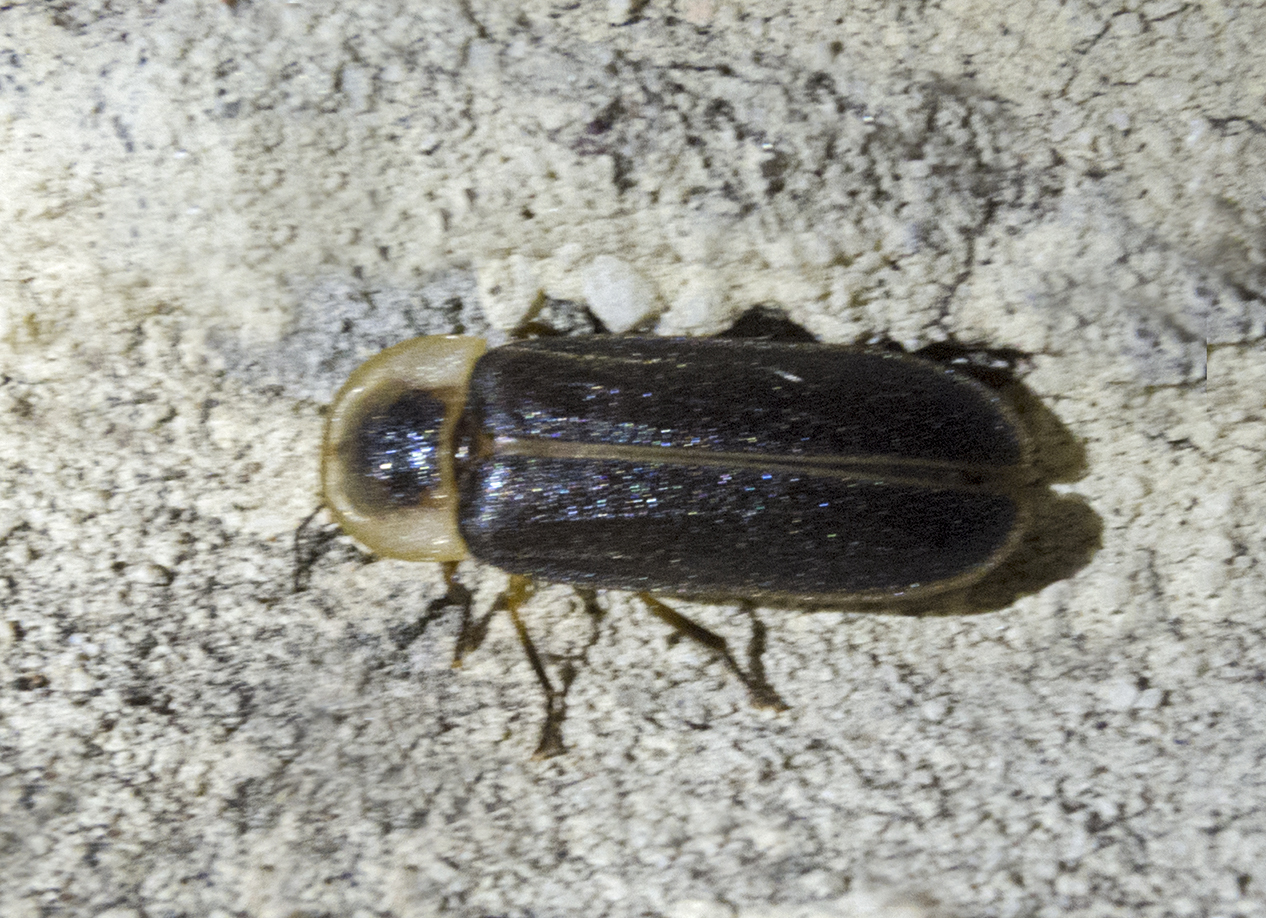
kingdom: Animalia
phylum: Arthropoda
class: Insecta
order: Coleoptera
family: Lampyridae
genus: Lampyris
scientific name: Lampyris zenkeri
